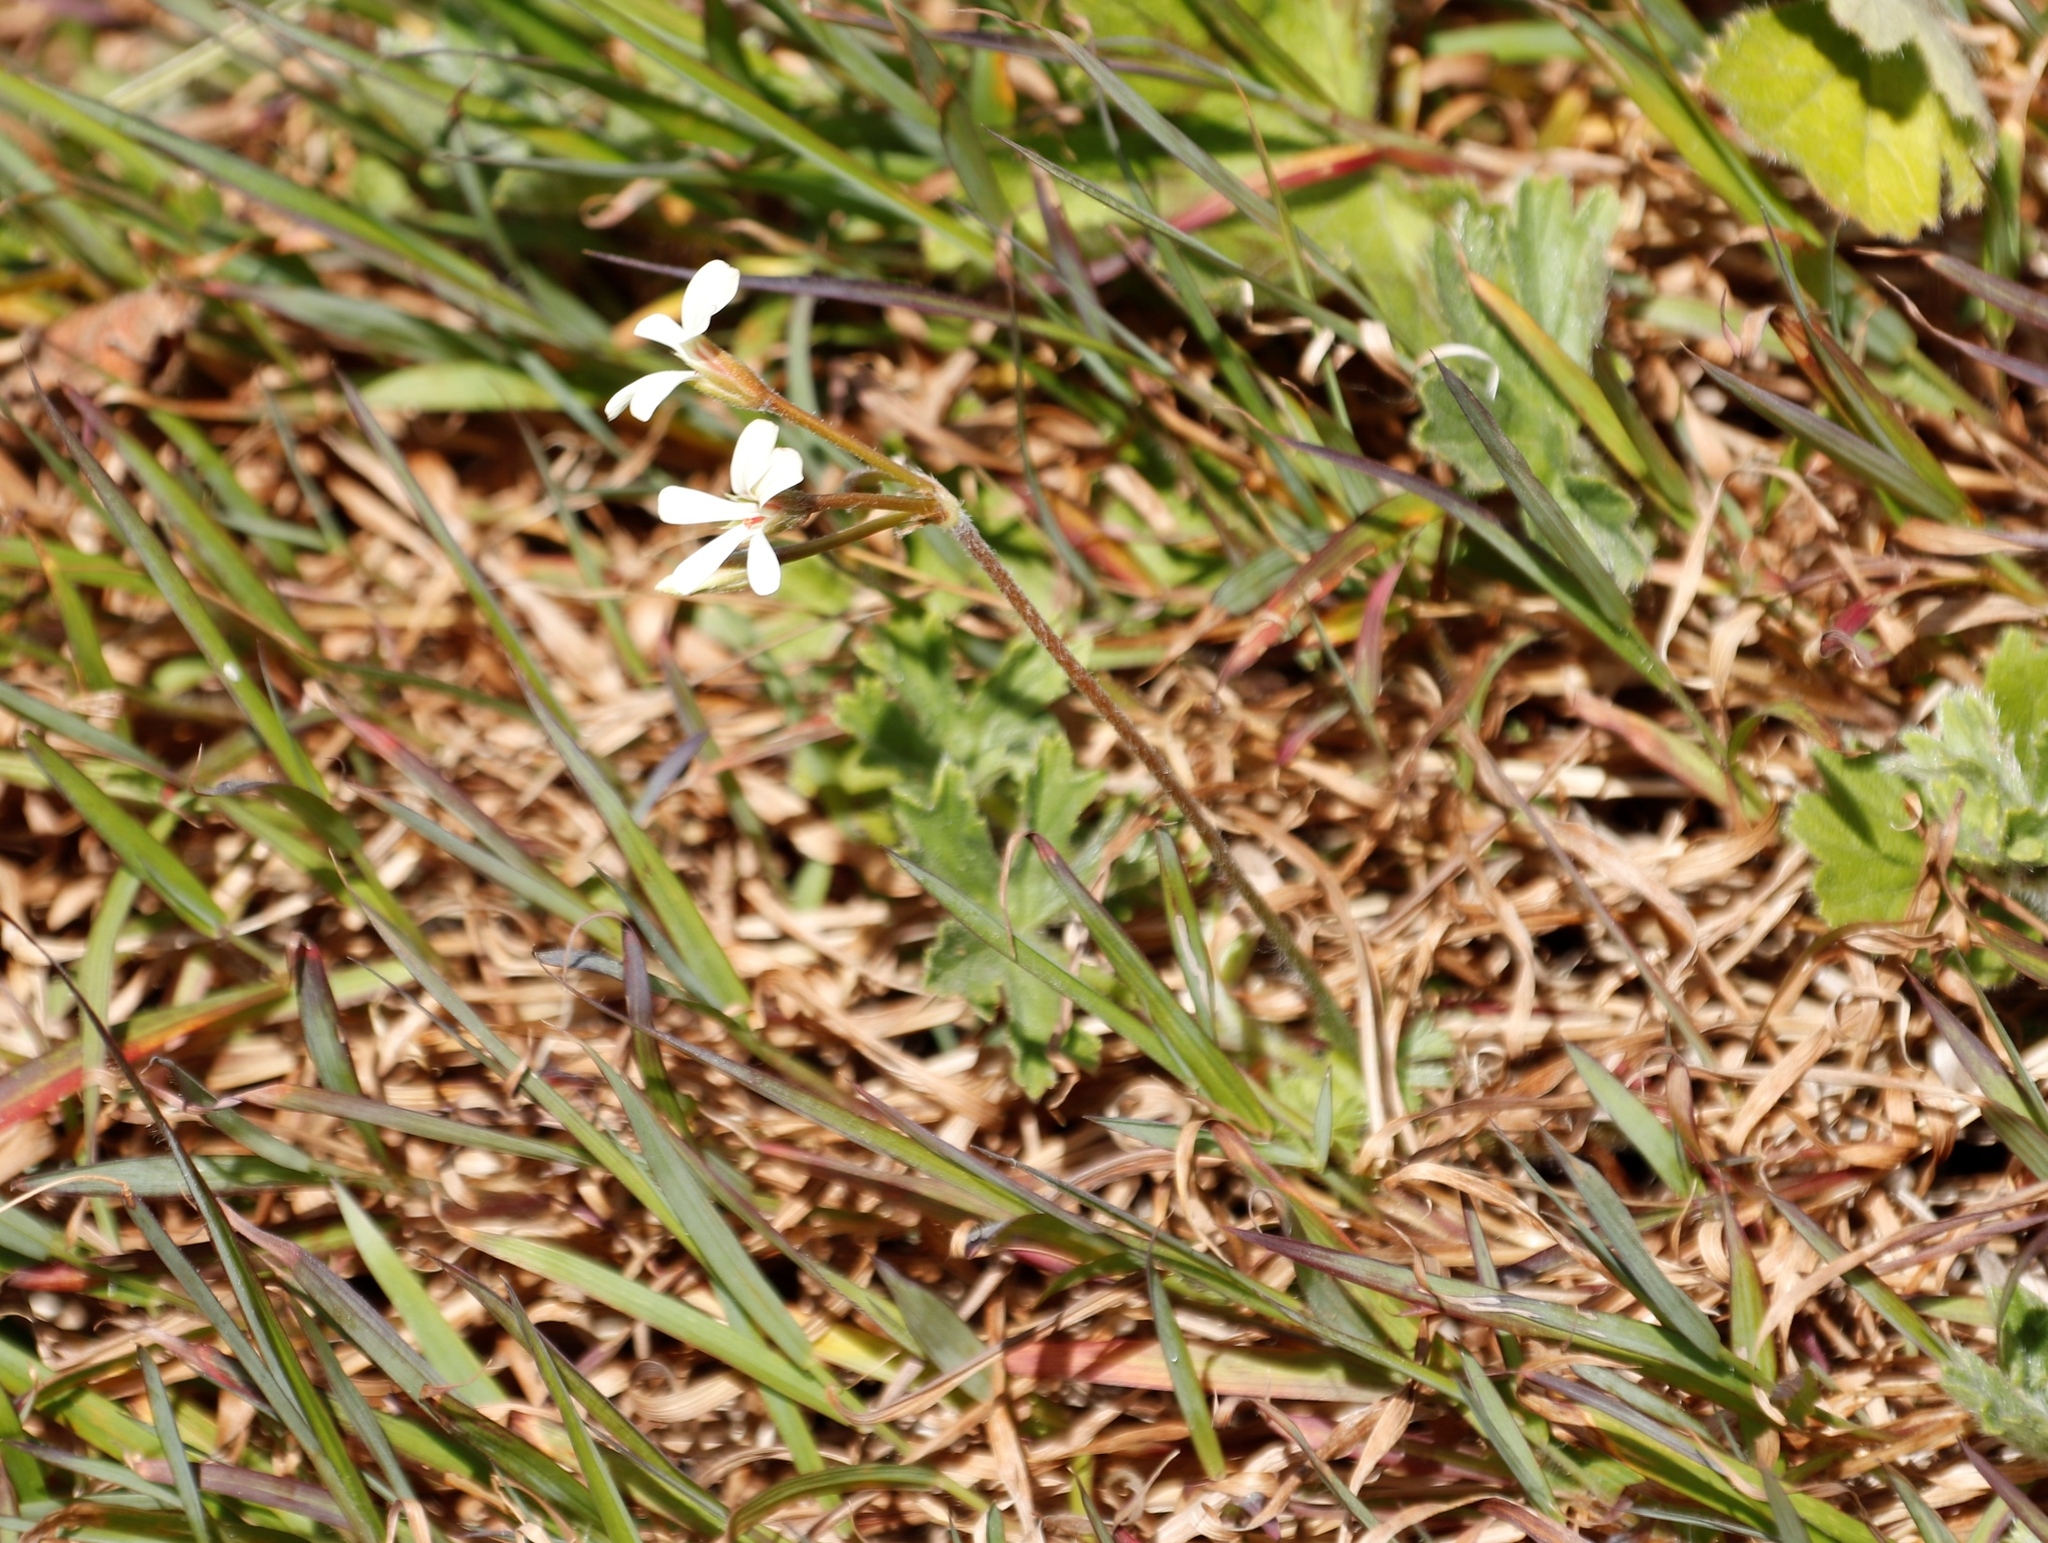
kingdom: Plantae
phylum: Tracheophyta
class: Magnoliopsida
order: Geraniales
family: Geraniaceae
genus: Pelargonium
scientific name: Pelargonium alchemilloides
